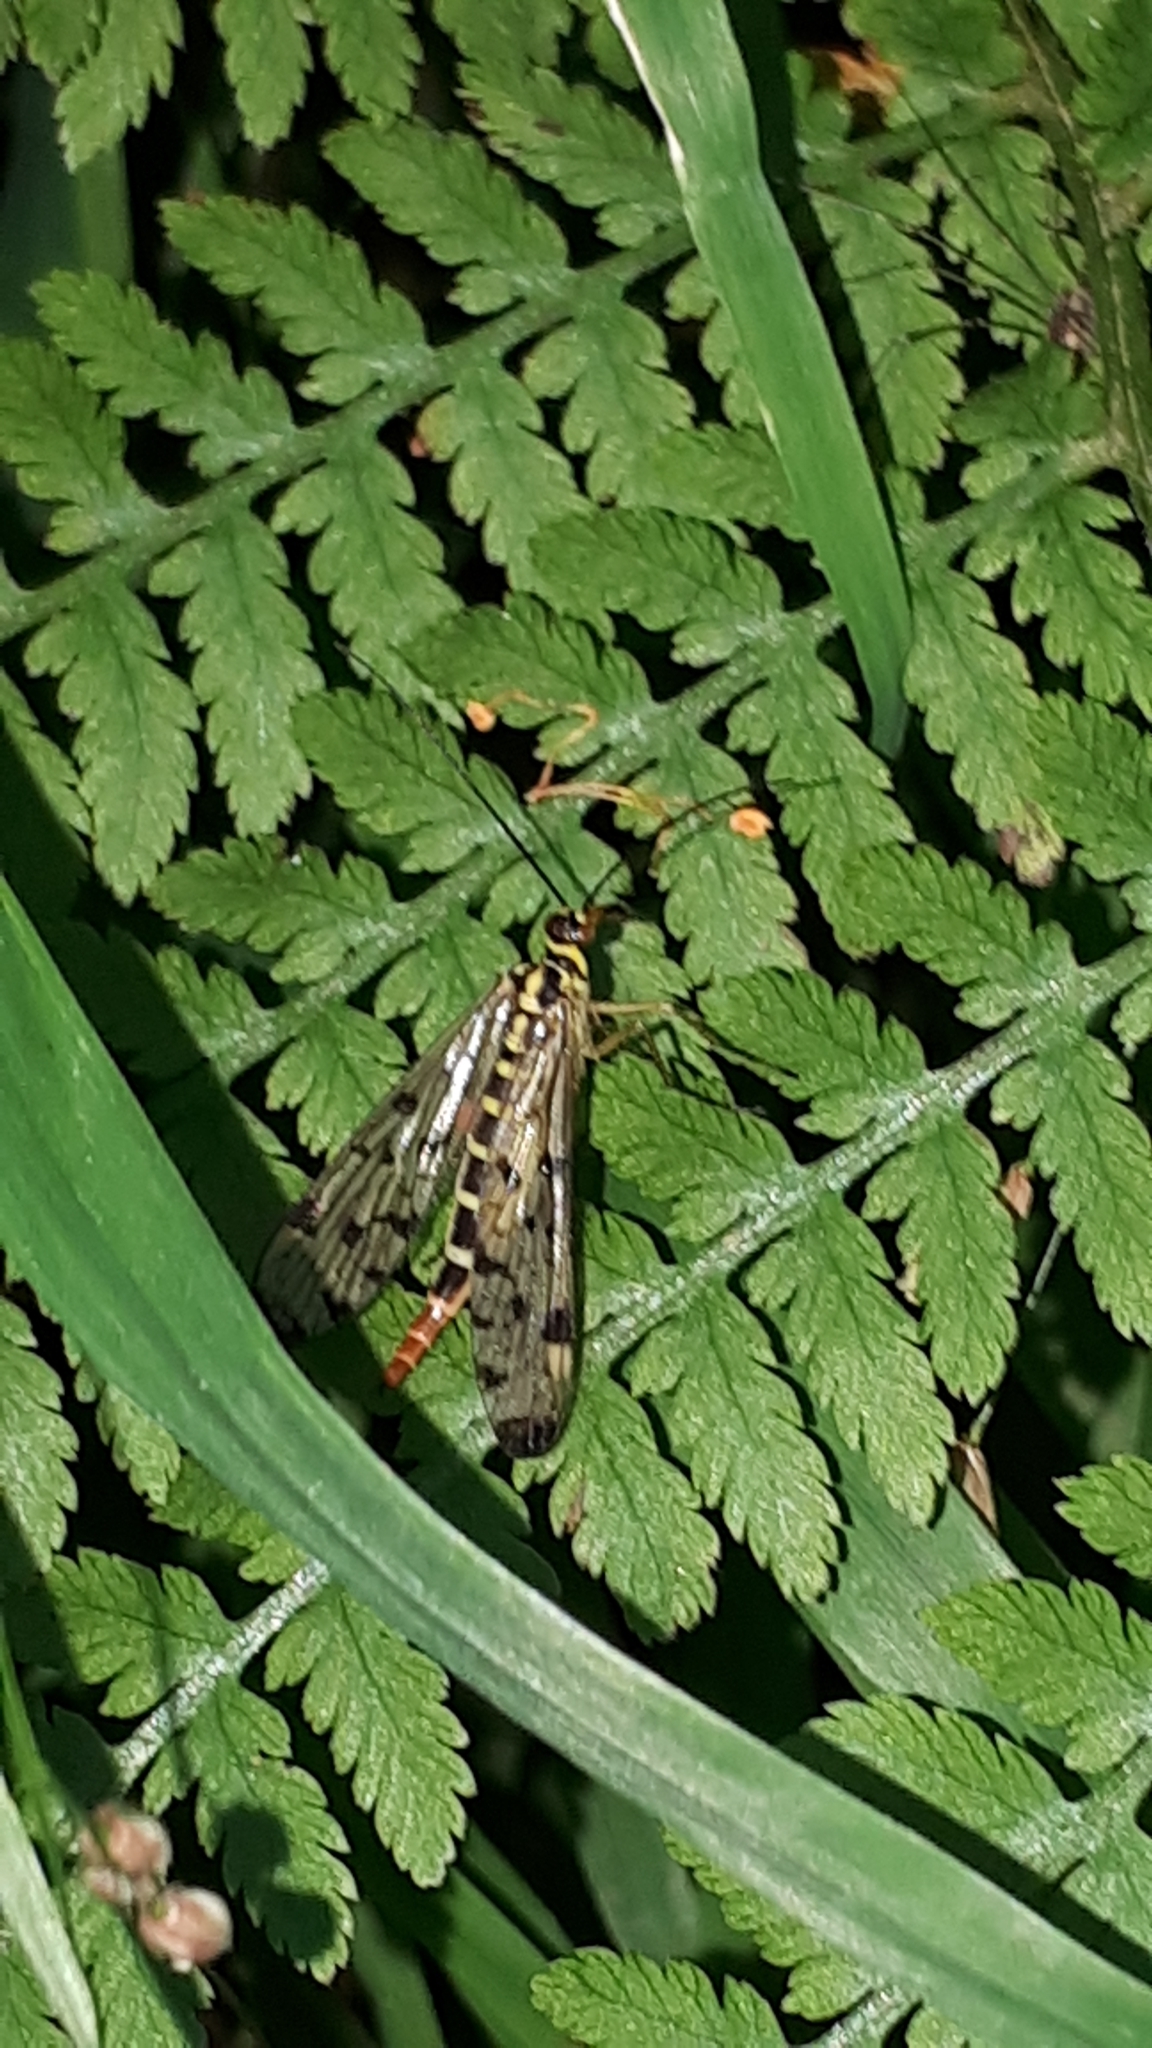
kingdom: Animalia
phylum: Arthropoda
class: Insecta
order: Mecoptera
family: Panorpidae
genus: Panorpa
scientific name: Panorpa germanica
